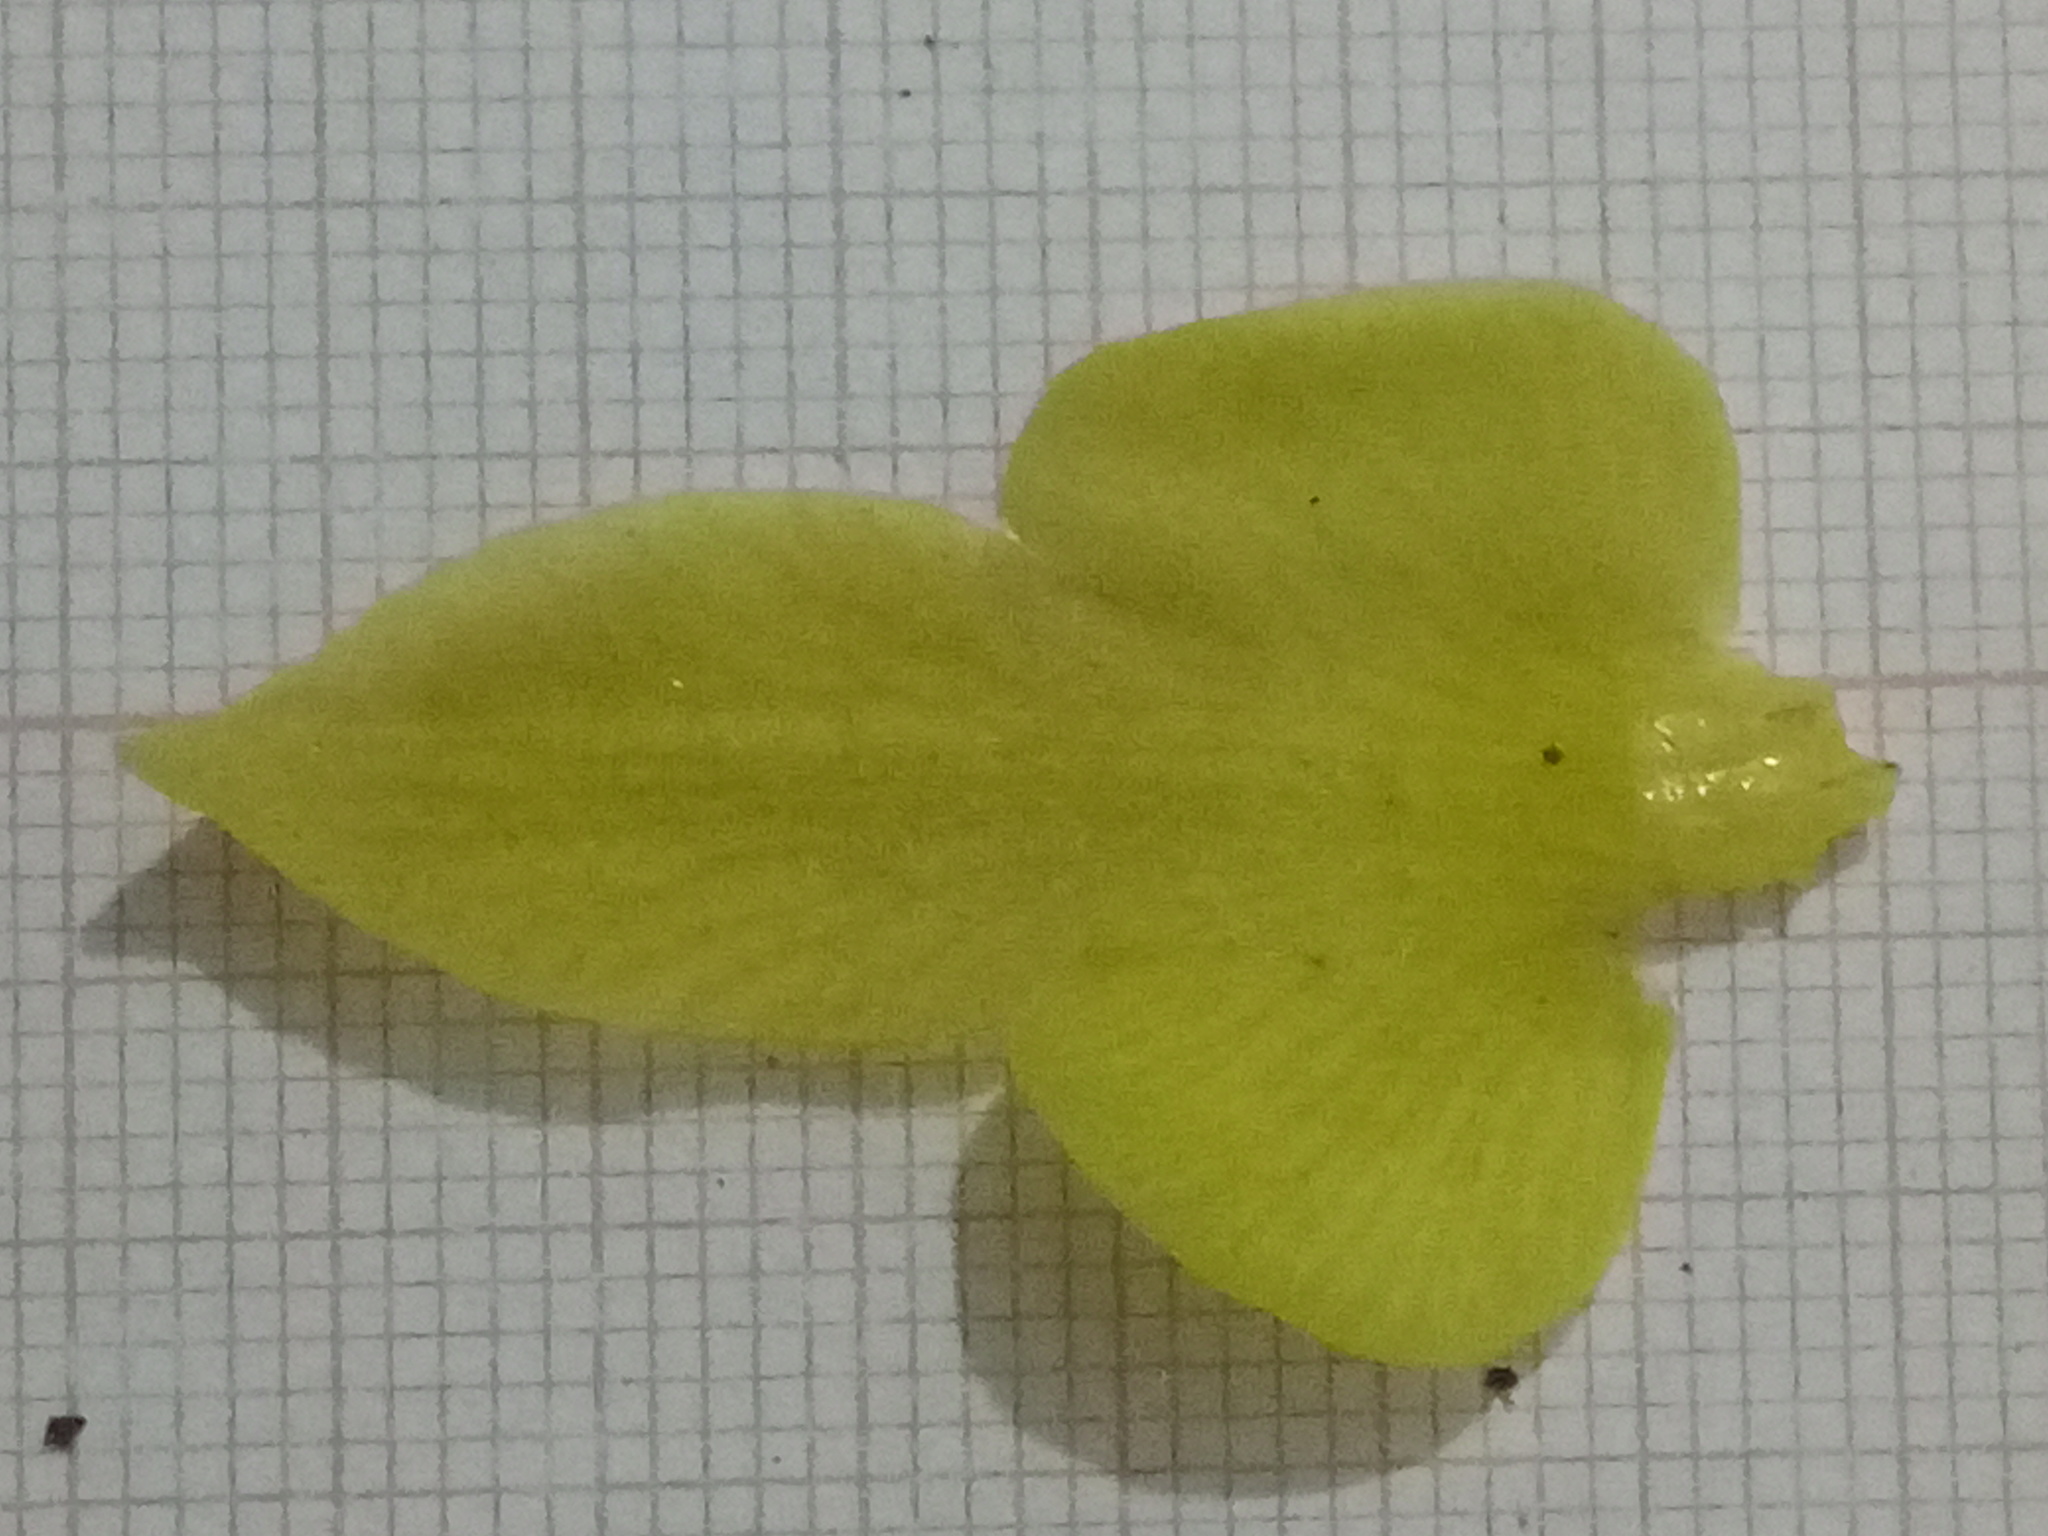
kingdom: Plantae
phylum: Tracheophyta
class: Liliopsida
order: Asparagales
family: Orchidaceae
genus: Serapias
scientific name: Serapias lingua
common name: Tongue-orchid
